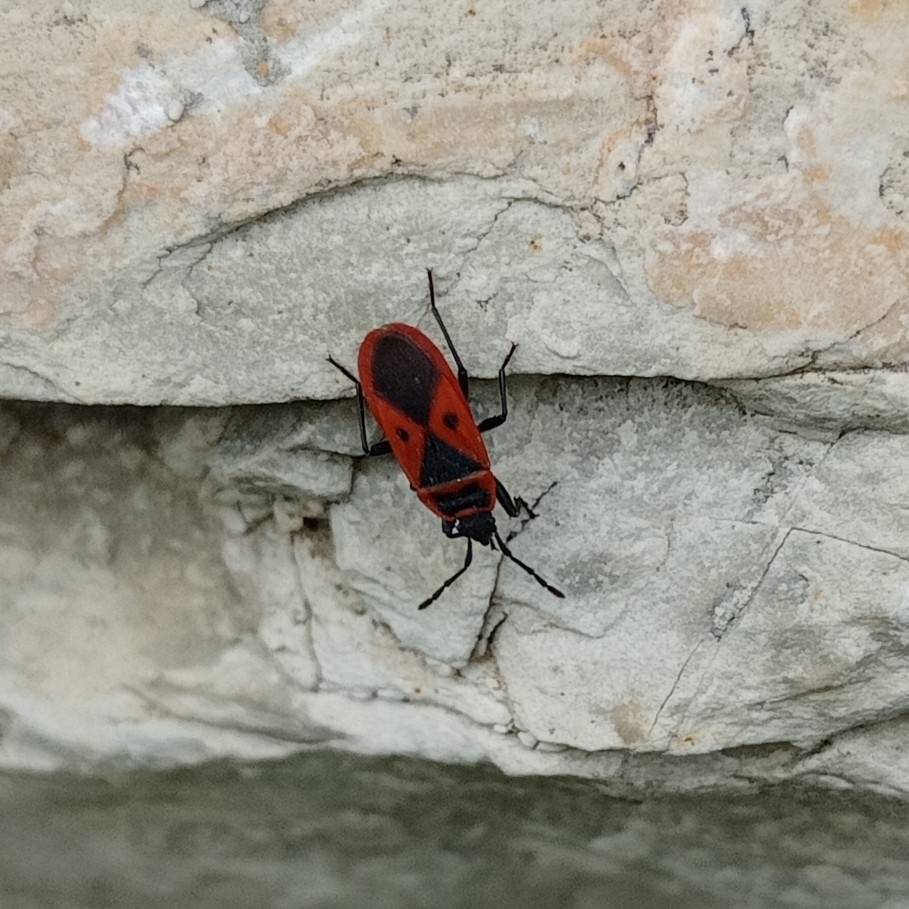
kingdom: Animalia
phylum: Arthropoda
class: Insecta
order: Hemiptera
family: Pyrrhocoridae
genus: Scantius
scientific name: Scantius aegyptius
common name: Red bug
